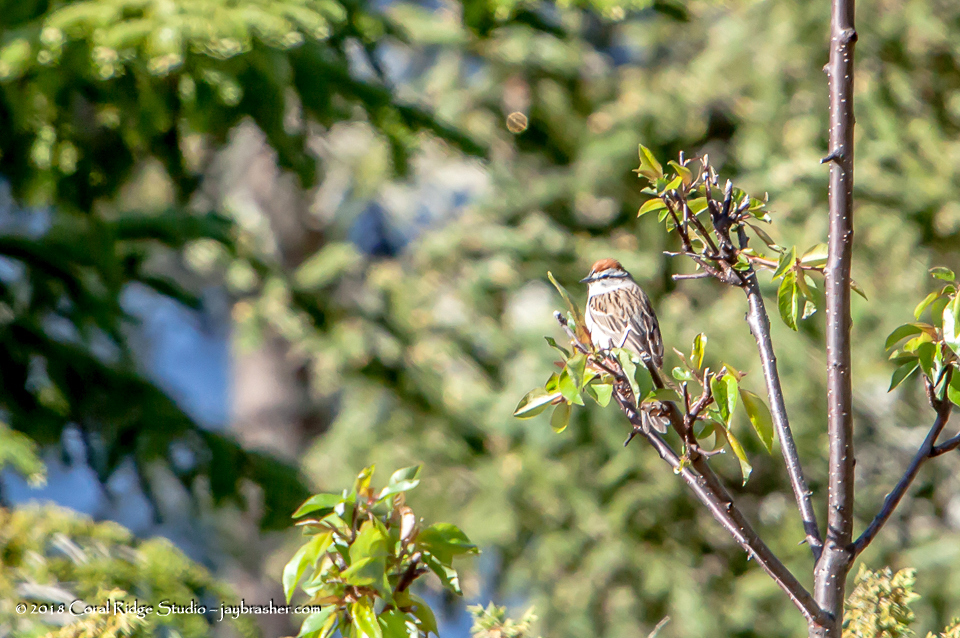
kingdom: Animalia
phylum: Chordata
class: Aves
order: Passeriformes
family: Passerellidae
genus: Spizella
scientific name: Spizella passerina
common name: Chipping sparrow
